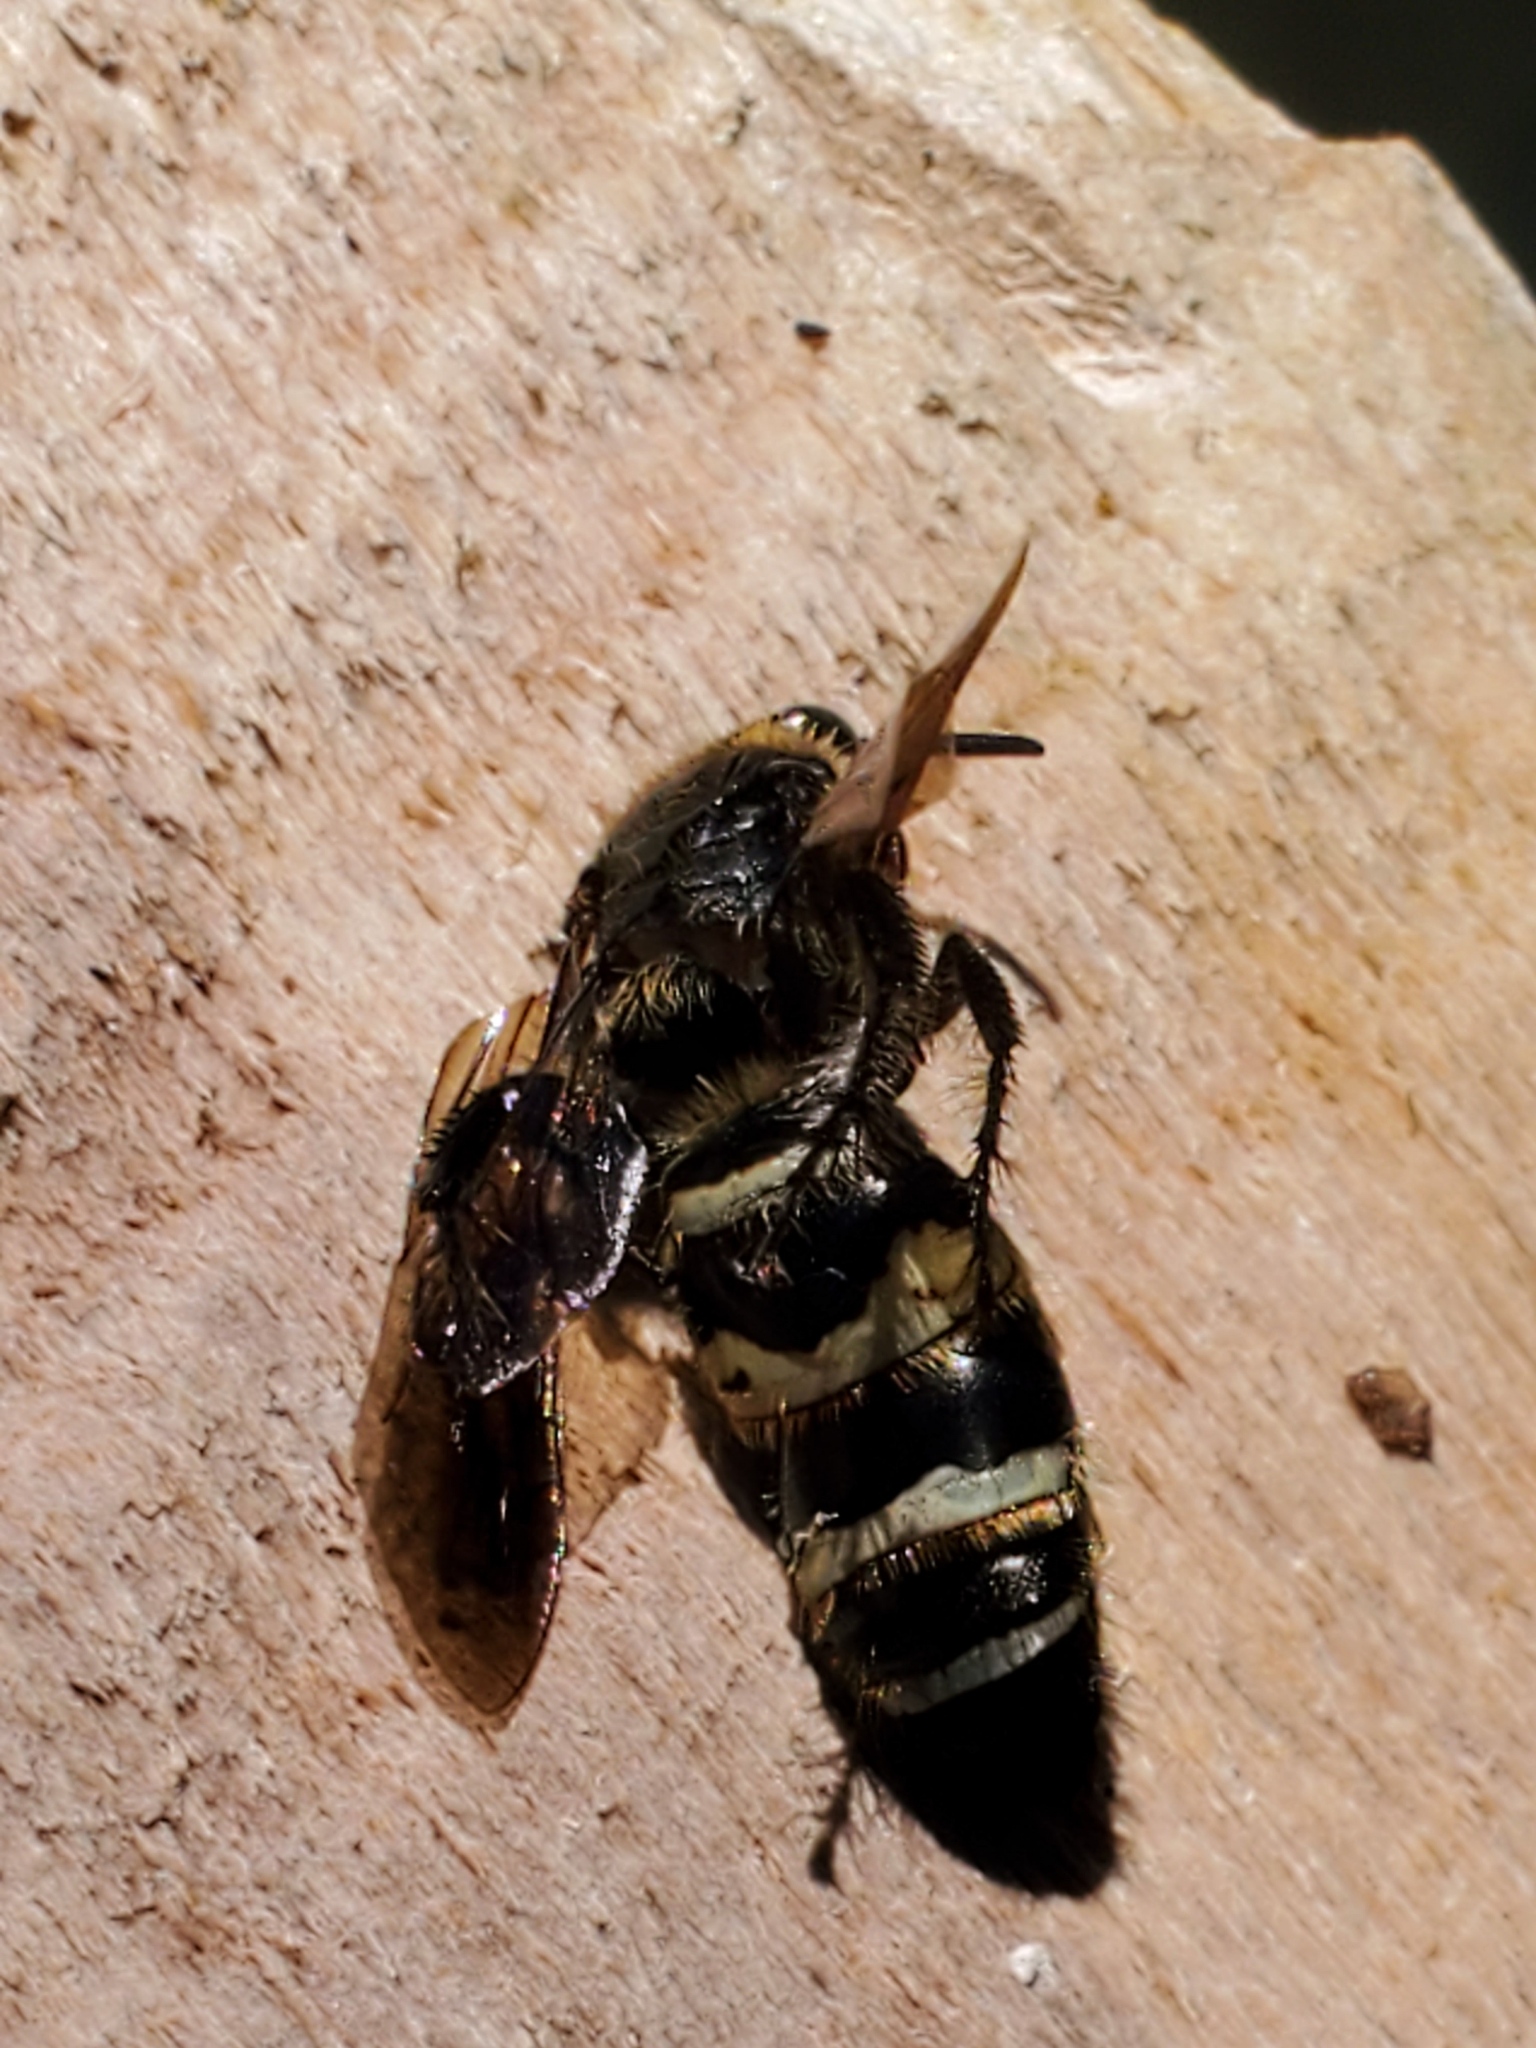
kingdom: Animalia
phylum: Arthropoda
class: Insecta
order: Hymenoptera
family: Scoliidae
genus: Dielis
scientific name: Dielis
